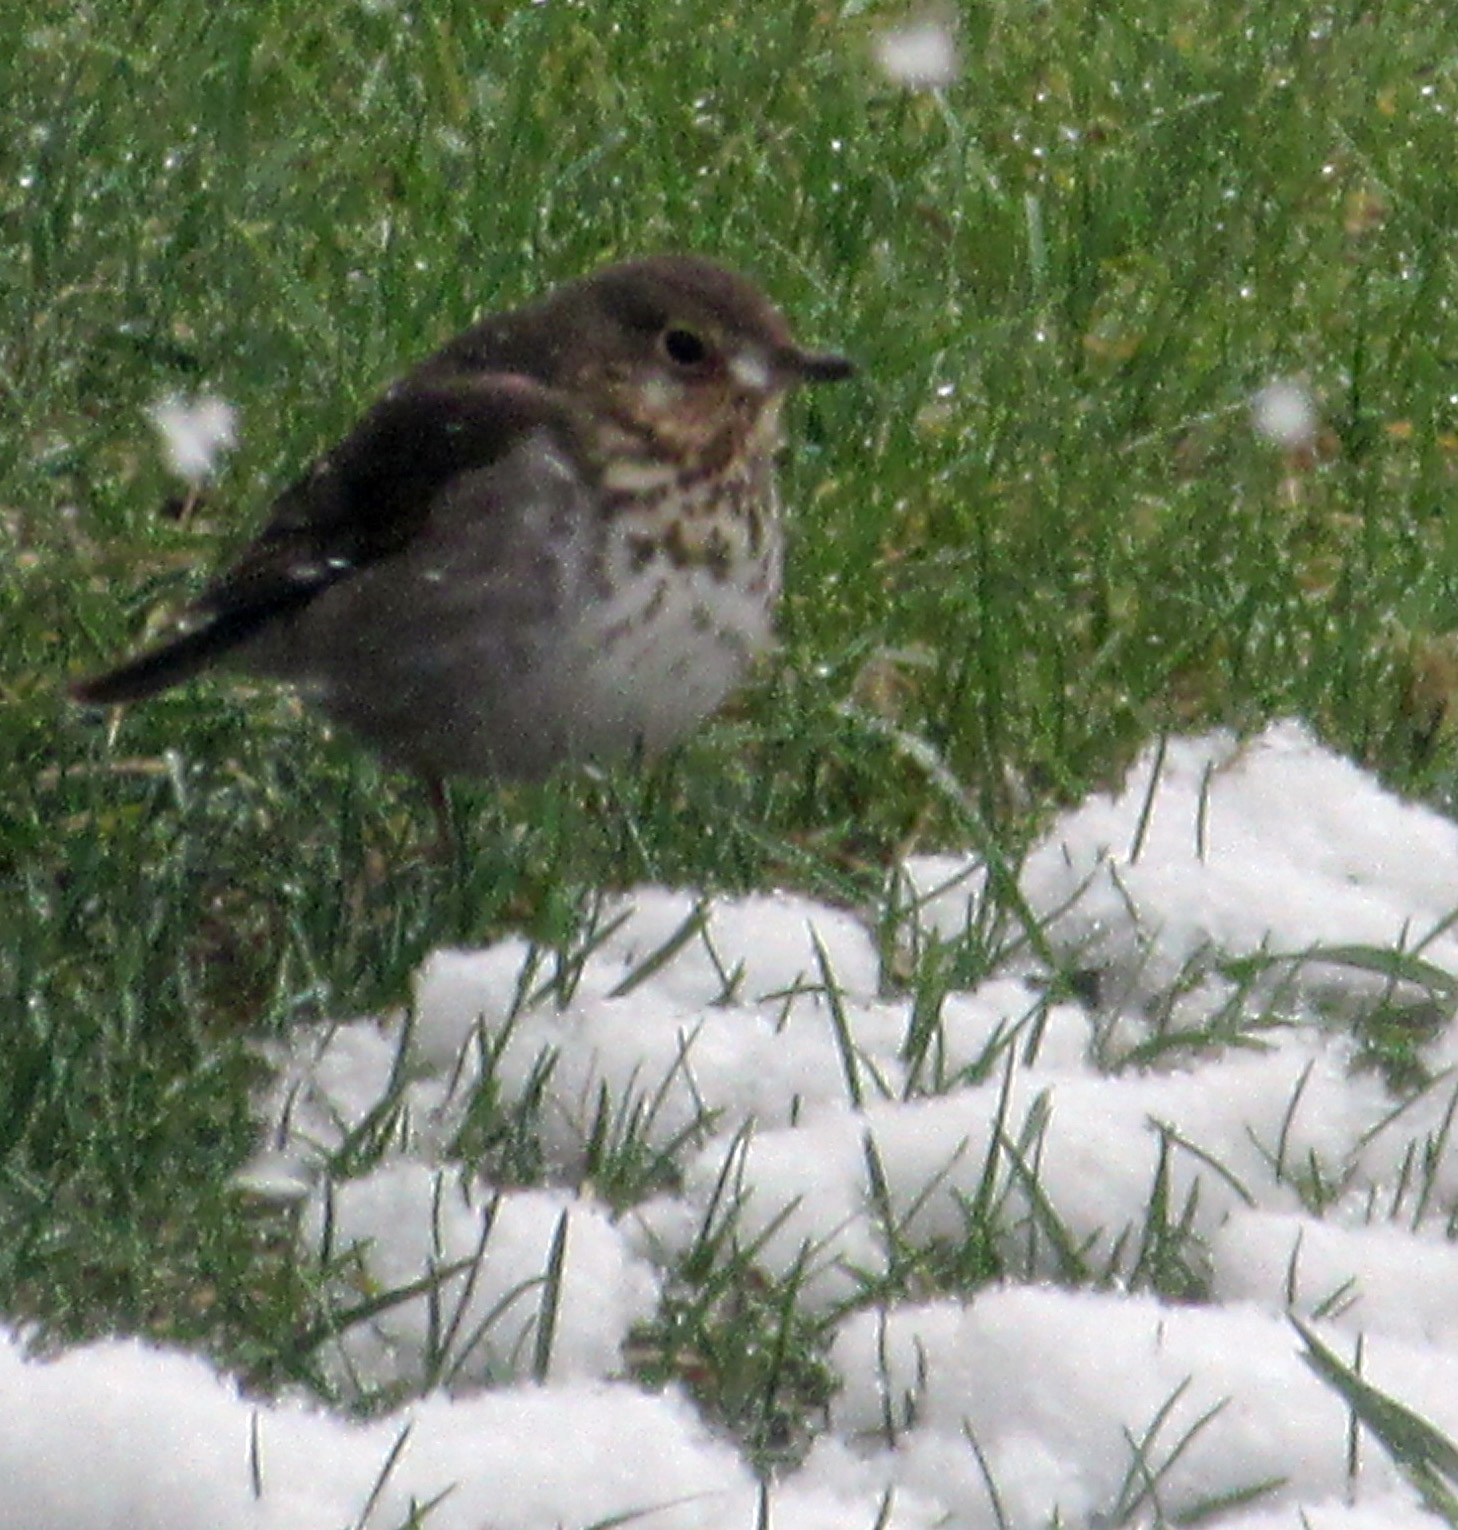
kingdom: Animalia
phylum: Chordata
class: Aves
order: Passeriformes
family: Turdidae
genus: Catharus
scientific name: Catharus ustulatus
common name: Swainson's thrush
